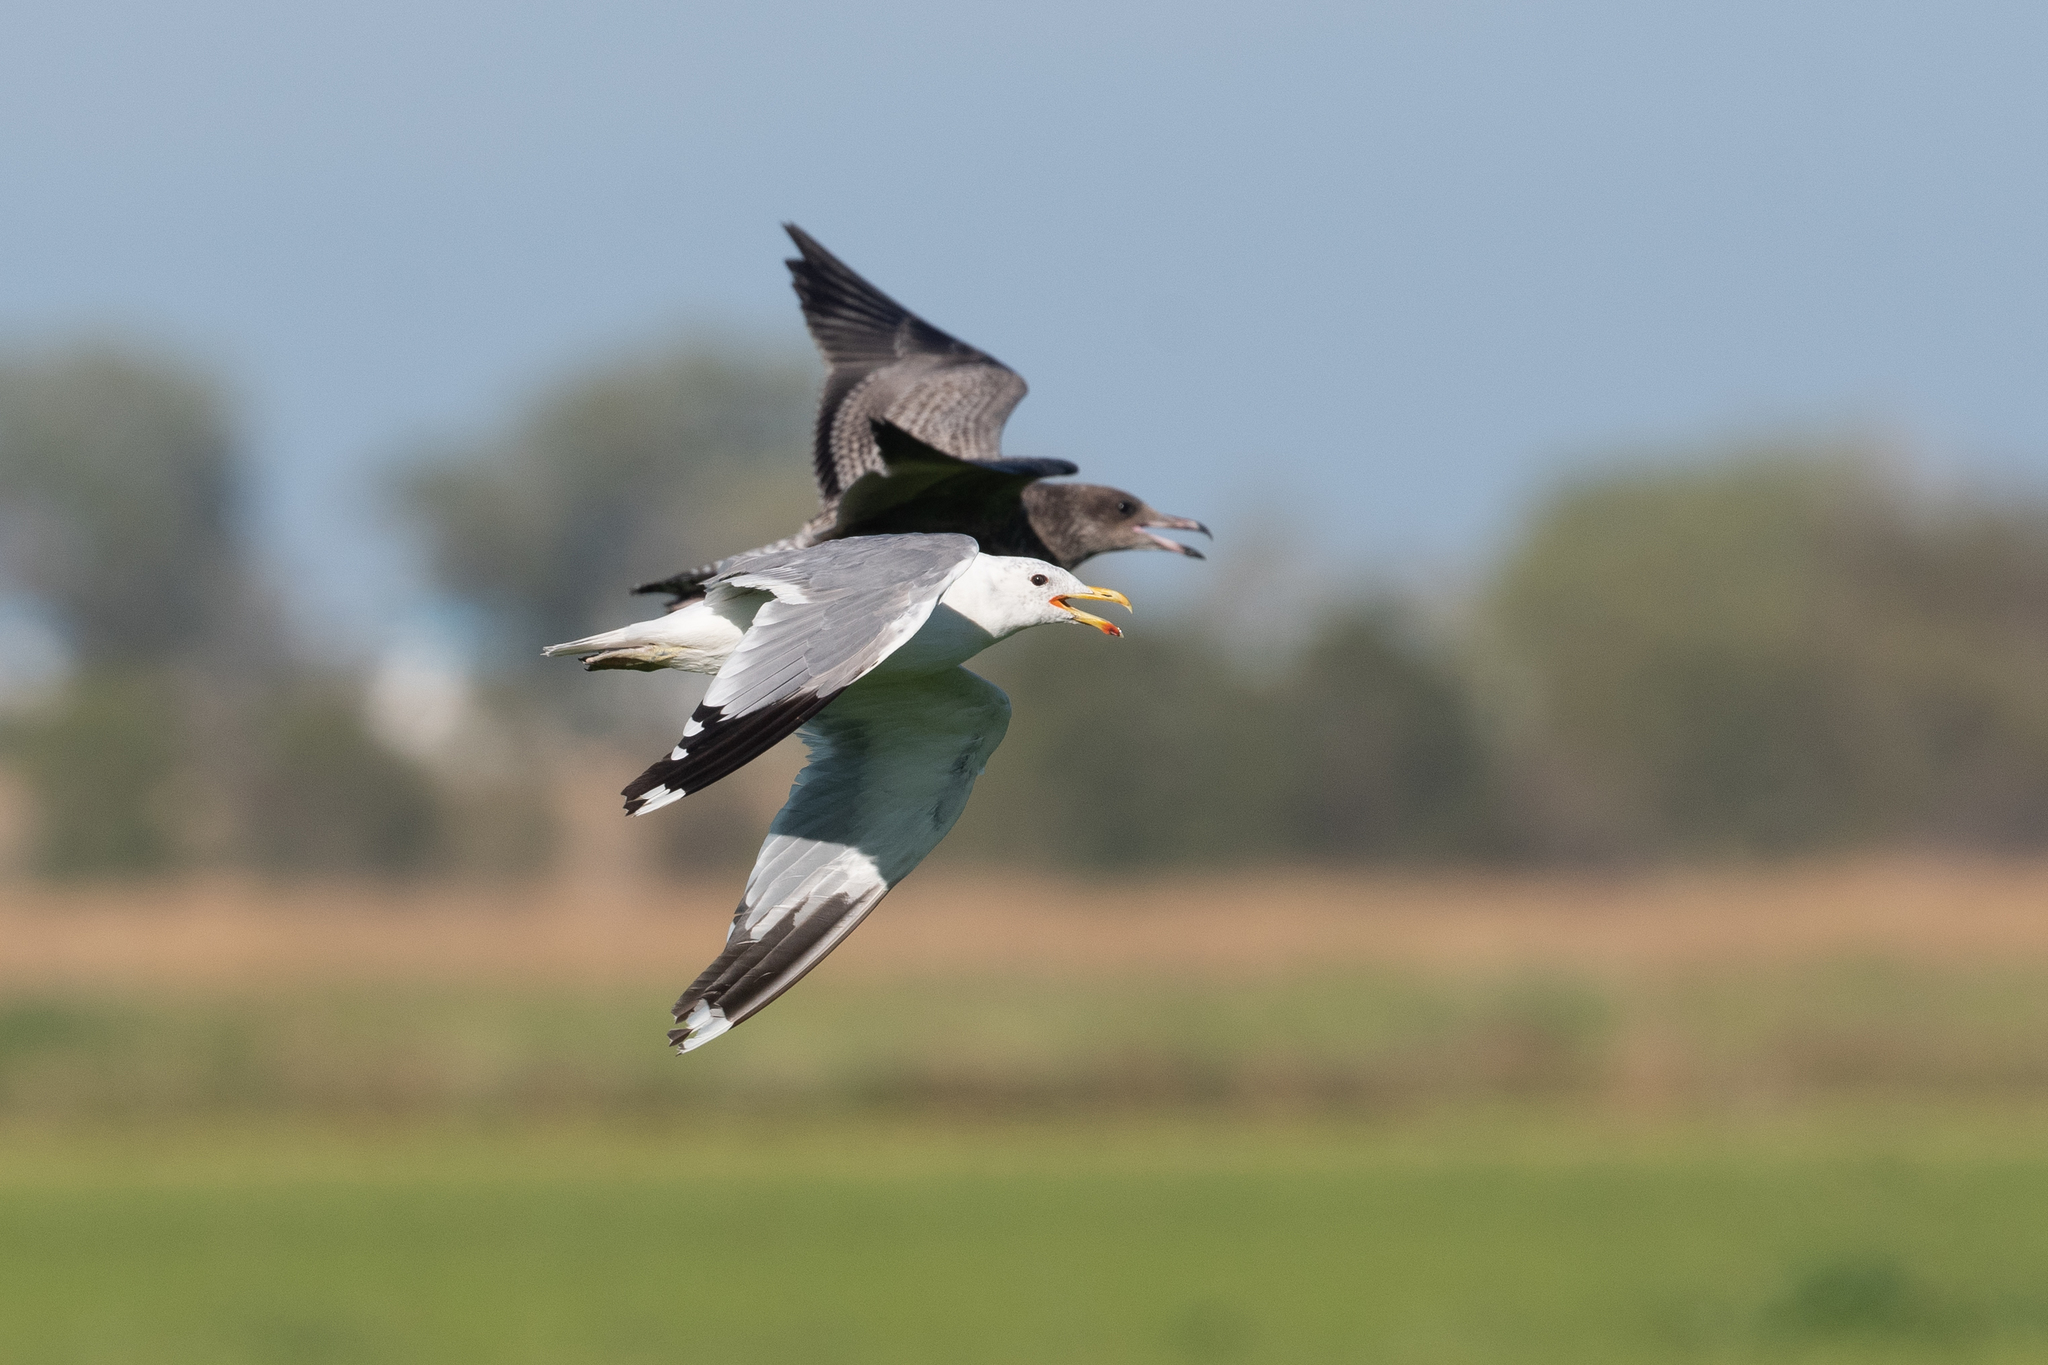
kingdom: Animalia
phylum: Chordata
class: Aves
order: Charadriiformes
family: Laridae
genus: Larus
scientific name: Larus californicus
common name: California gull
